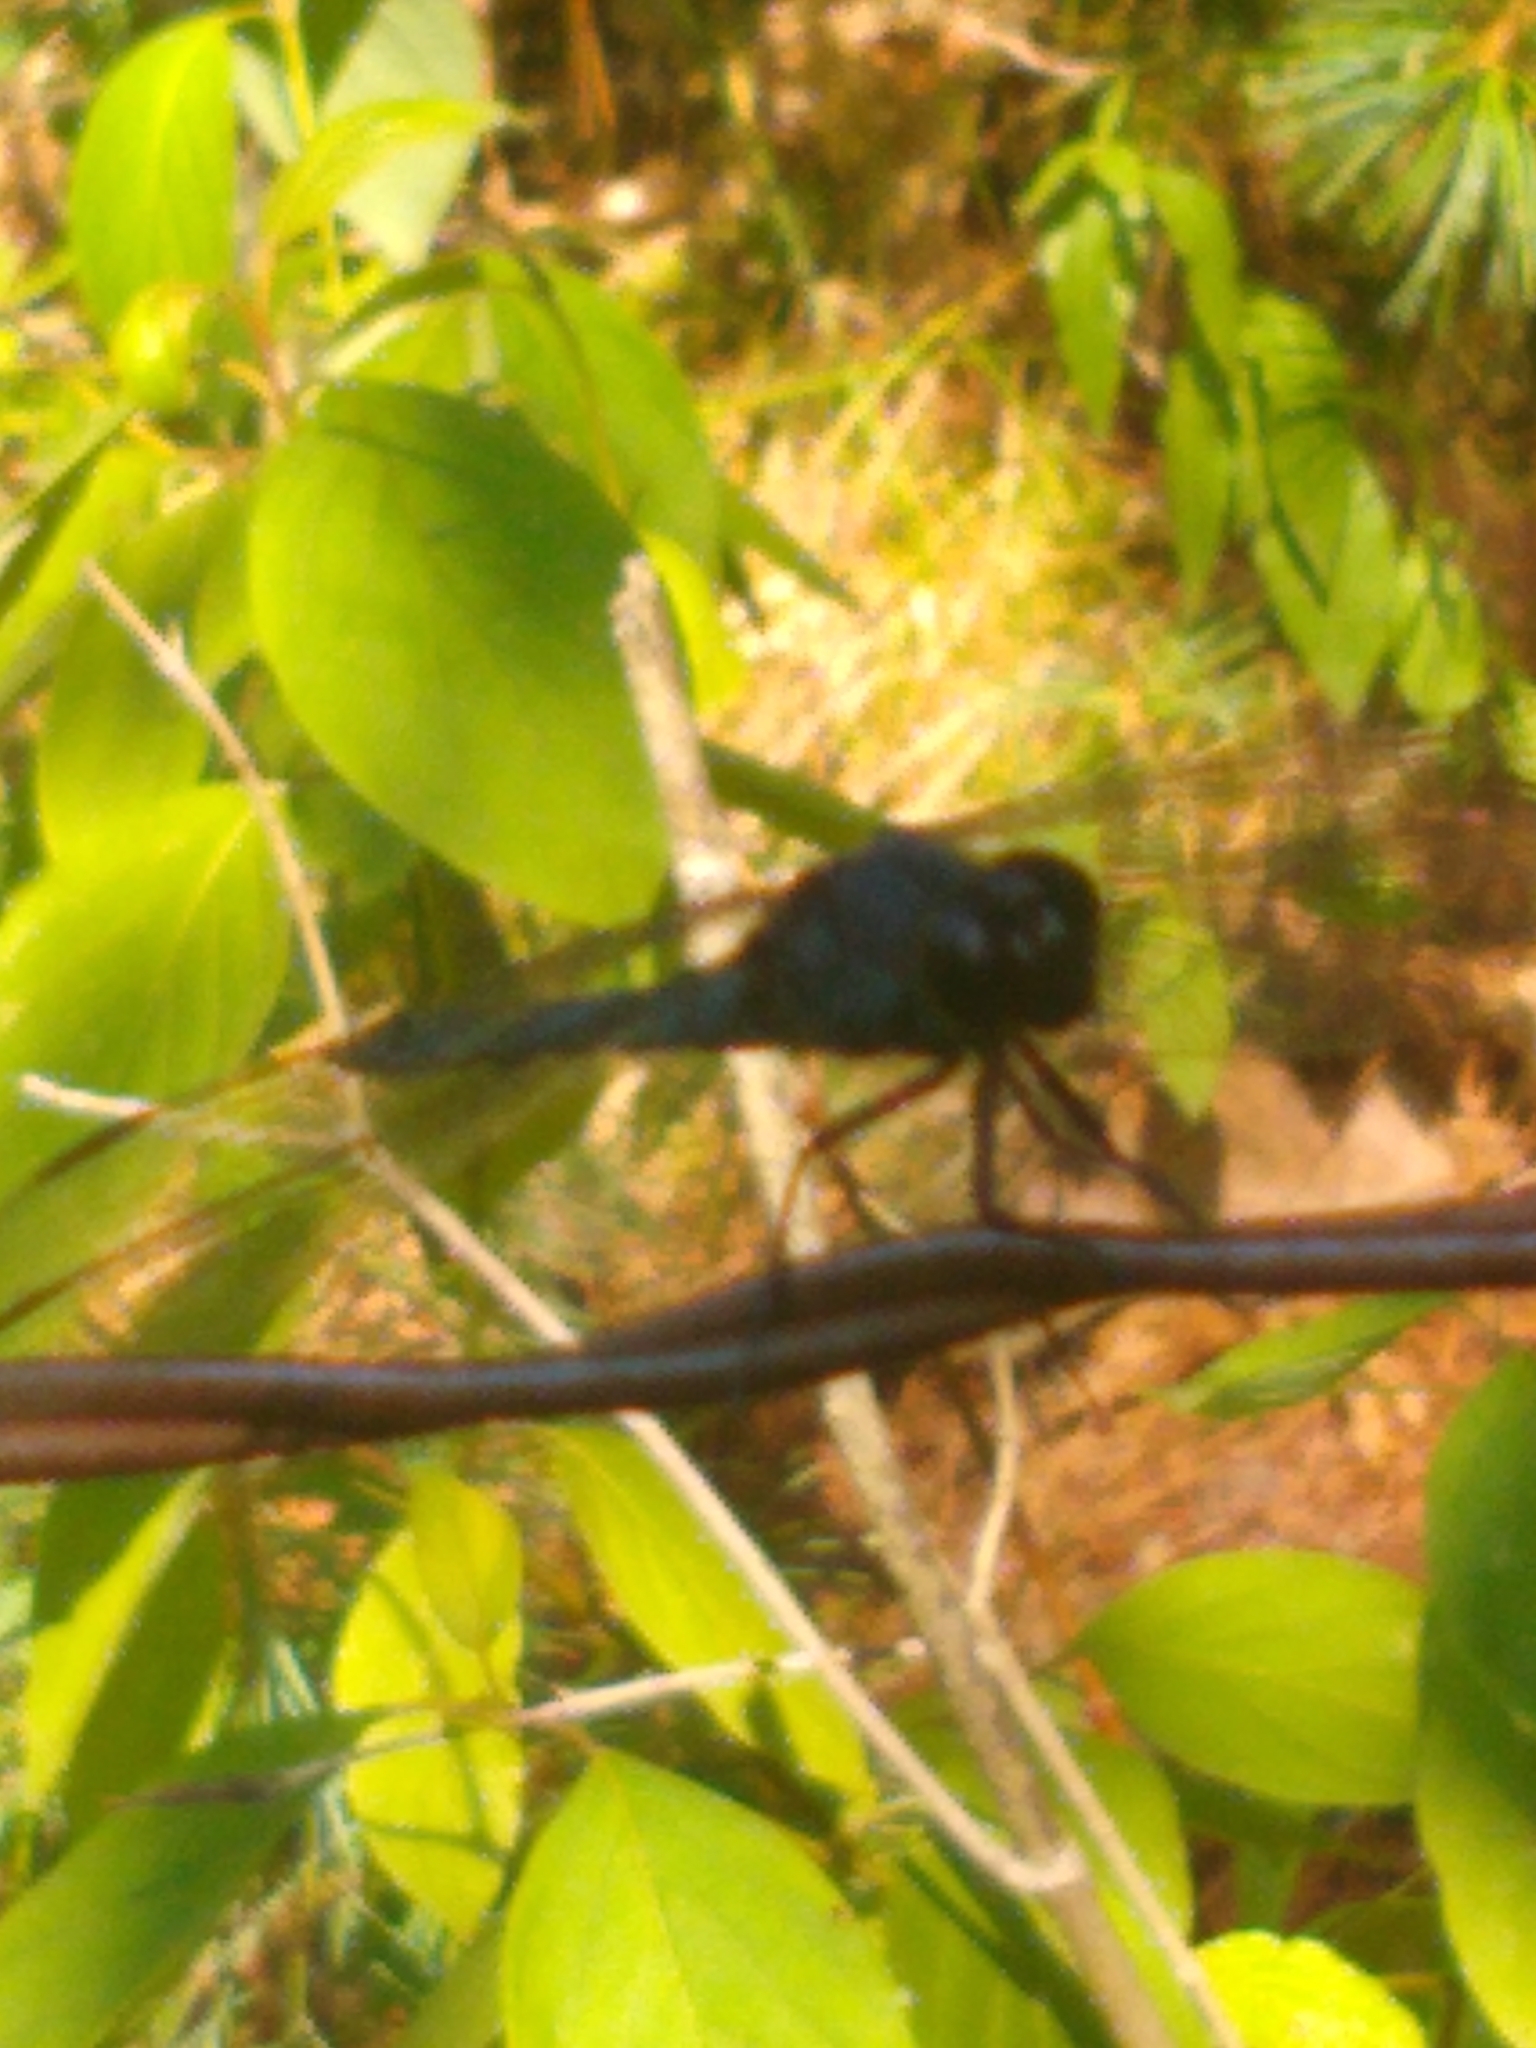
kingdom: Animalia
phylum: Arthropoda
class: Insecta
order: Odonata
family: Libellulidae
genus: Libellula
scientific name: Libellula incesta
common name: Slaty skimmer
